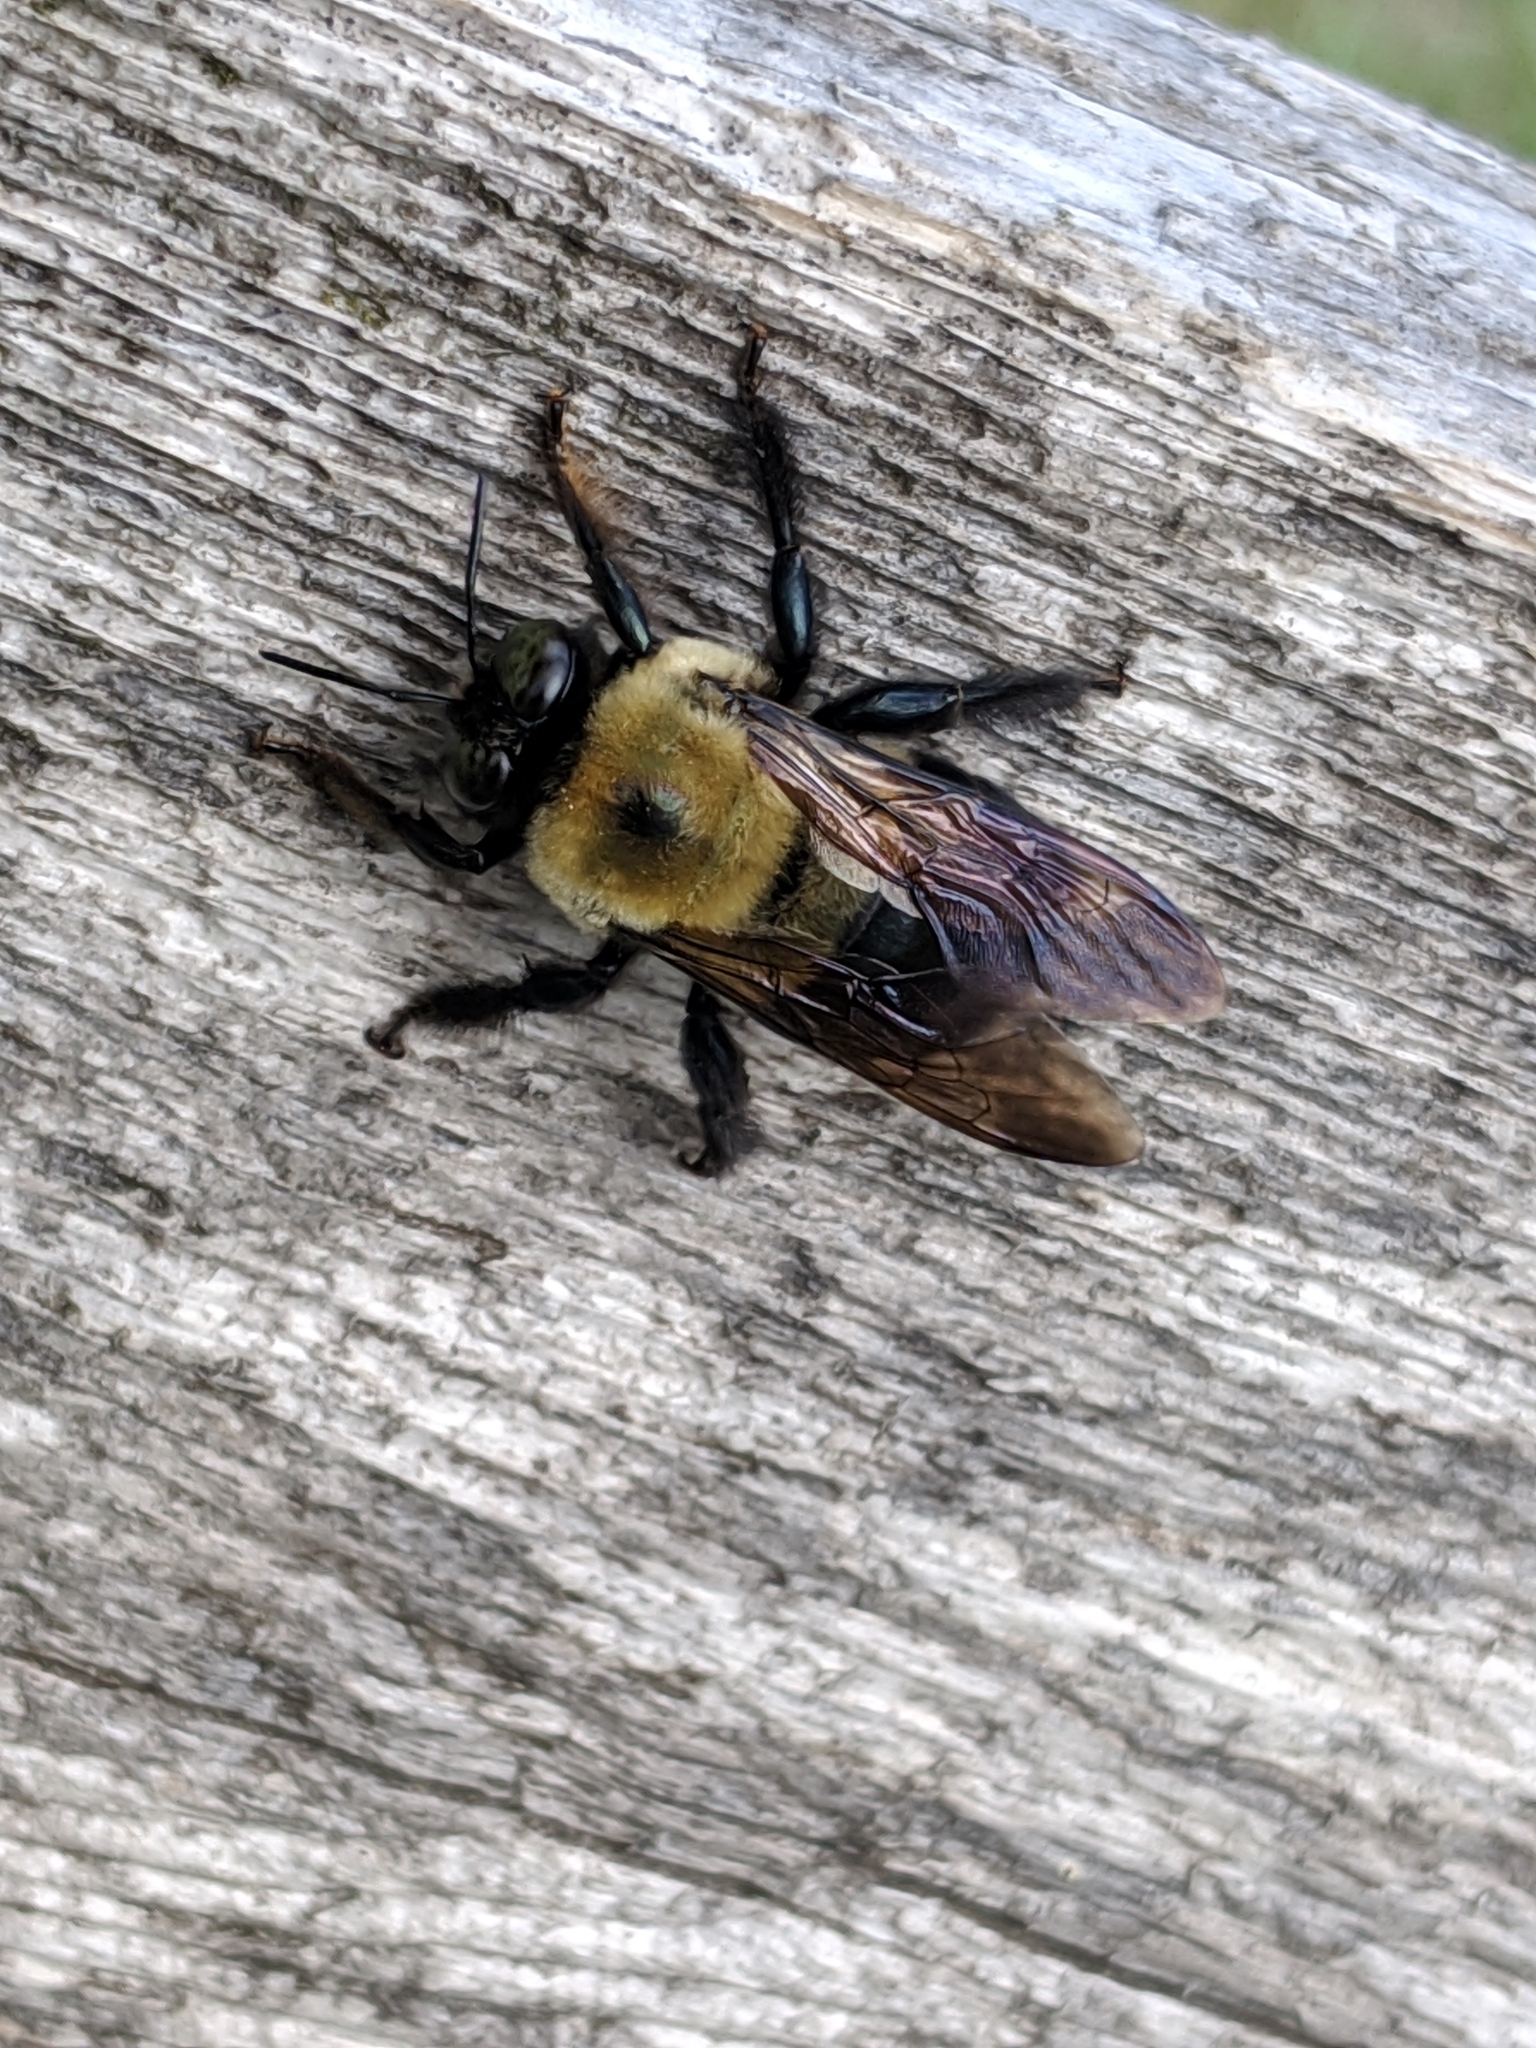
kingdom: Animalia
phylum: Arthropoda
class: Insecta
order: Hymenoptera
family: Apidae
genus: Xylocopa
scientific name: Xylocopa virginica
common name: Carpenter bee
